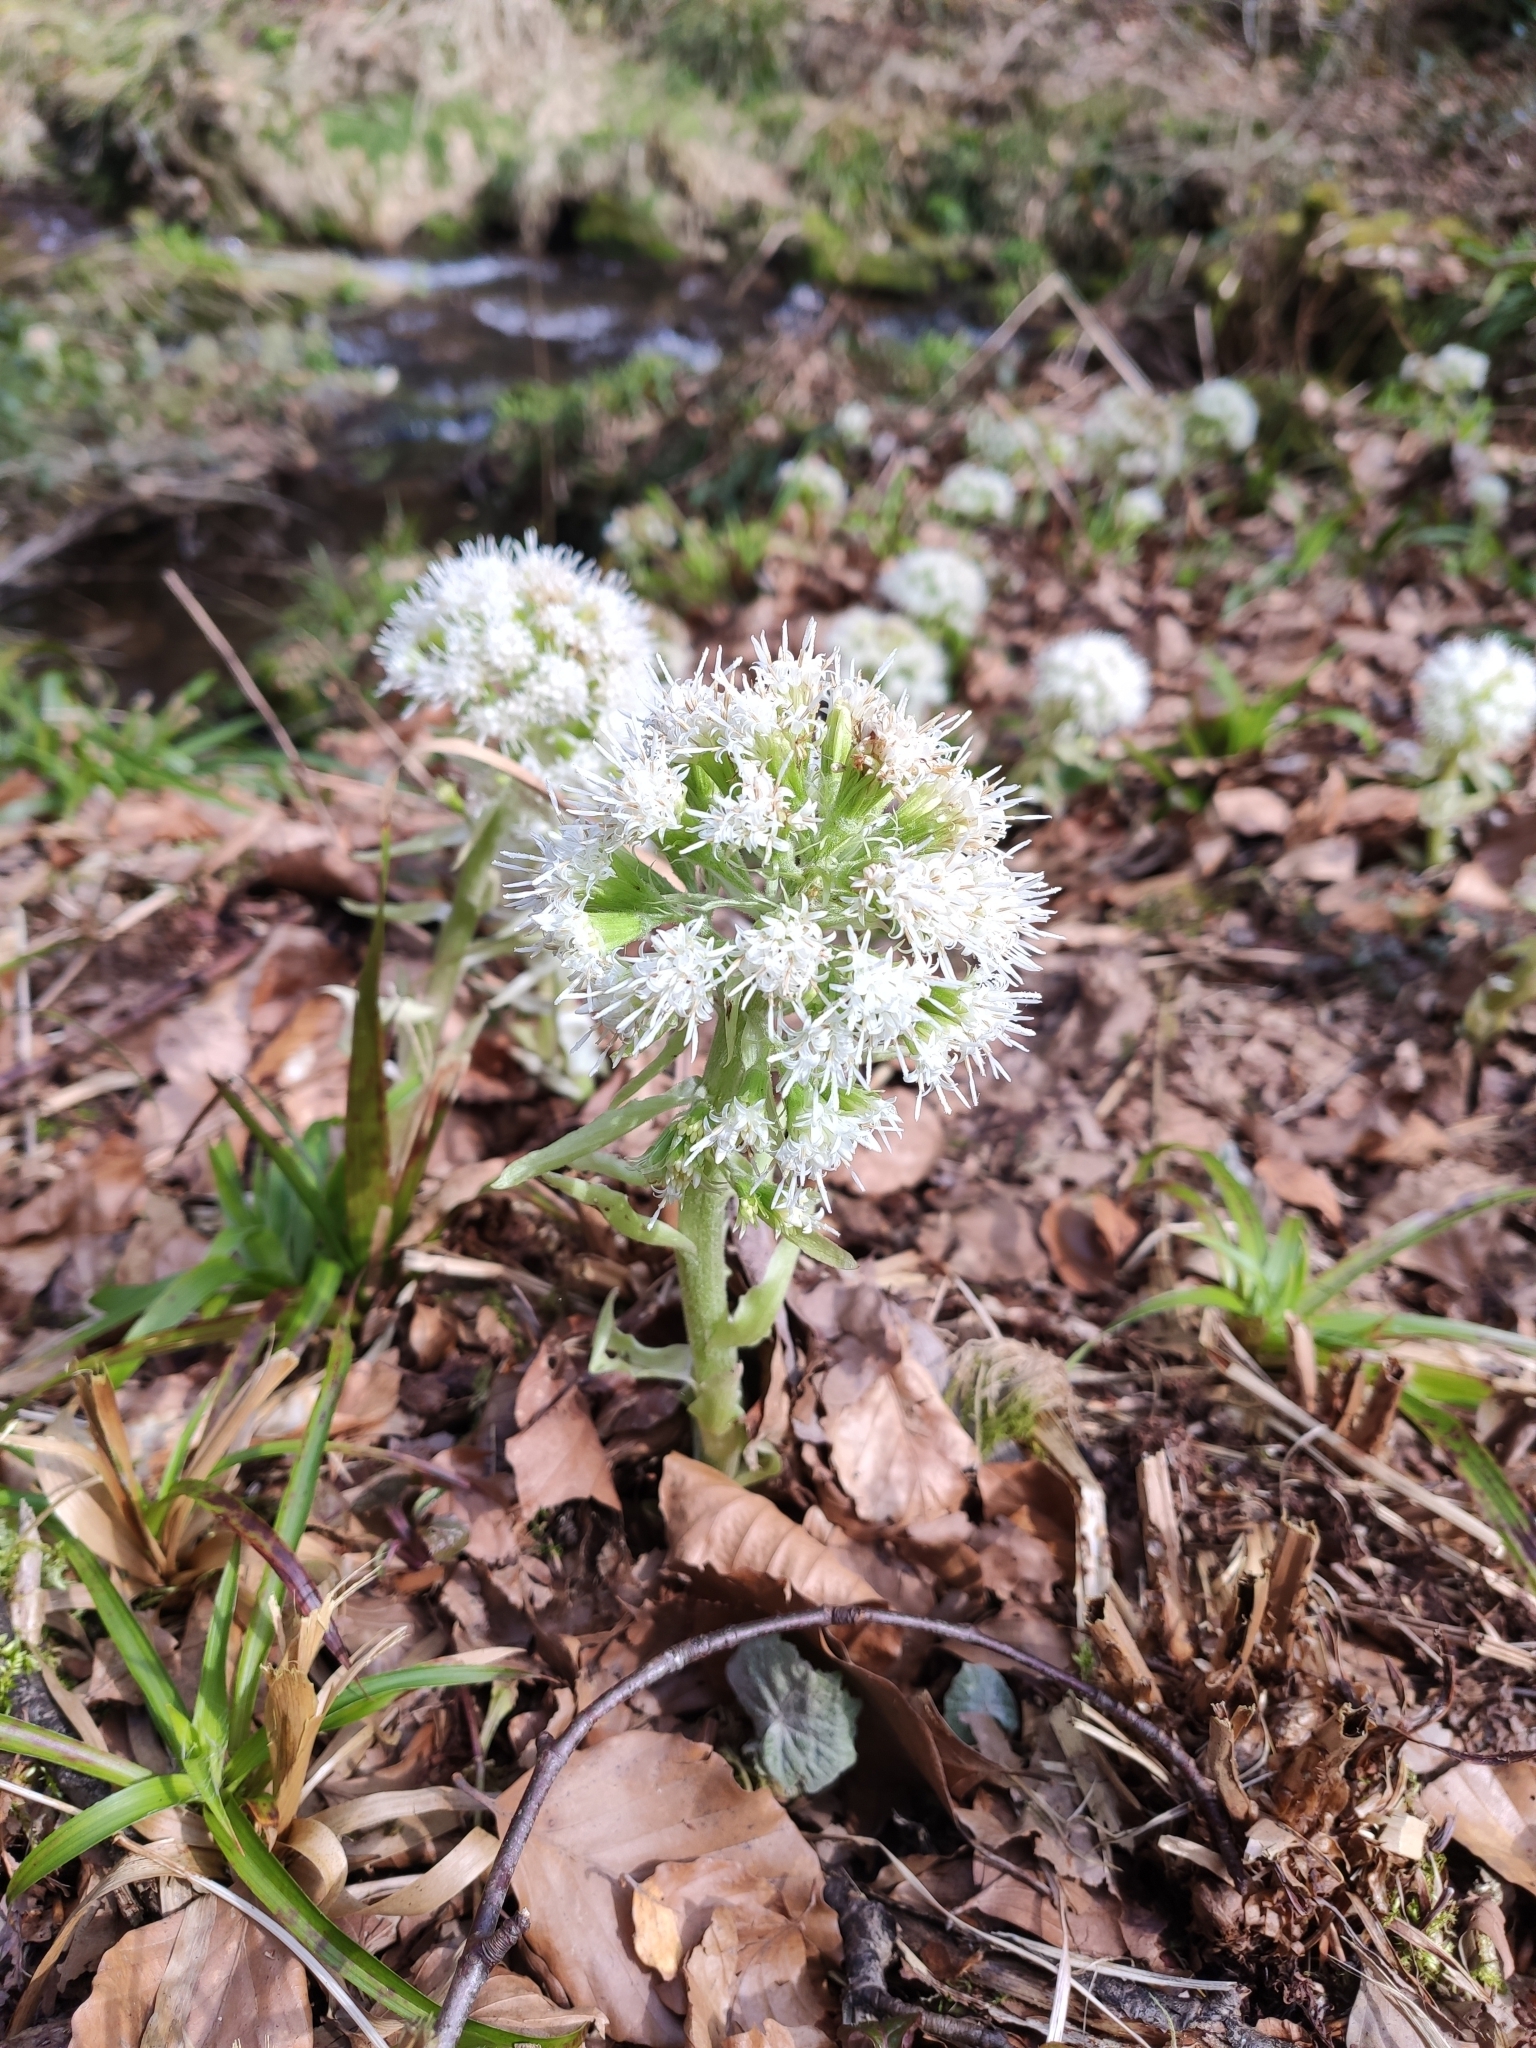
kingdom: Plantae
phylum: Tracheophyta
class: Magnoliopsida
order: Asterales
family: Asteraceae
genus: Petasites
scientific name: Petasites albus
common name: White butterbur
